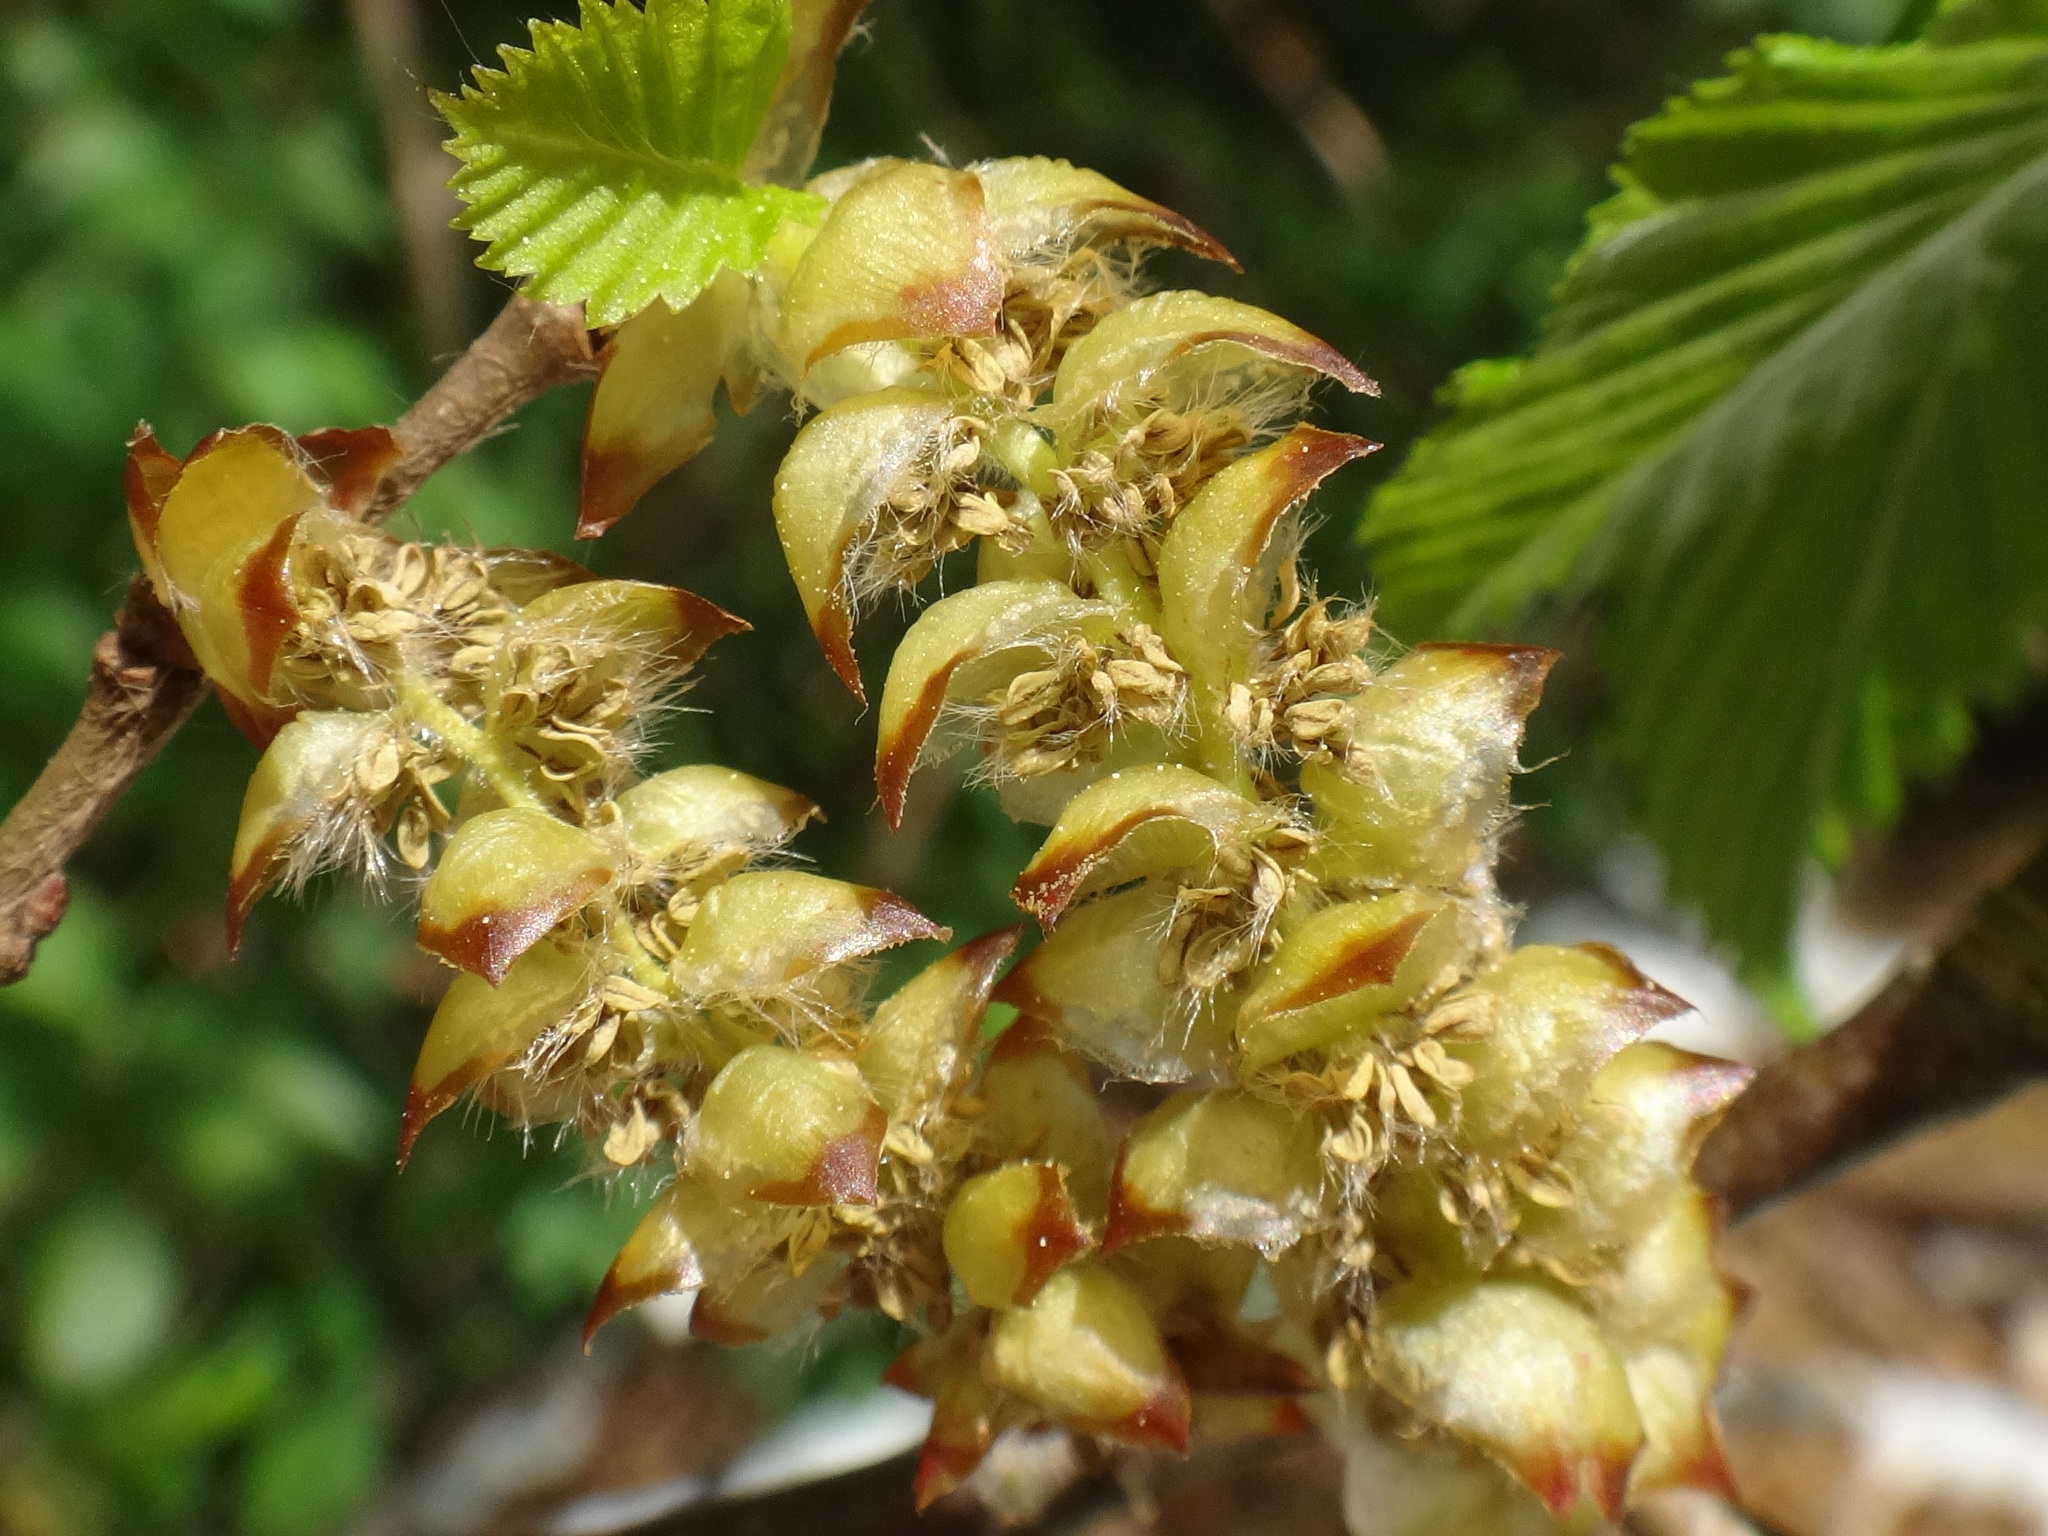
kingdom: Plantae
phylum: Tracheophyta
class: Magnoliopsida
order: Fagales
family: Betulaceae
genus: Carpinus
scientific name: Carpinus betulus
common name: Hornbeam
